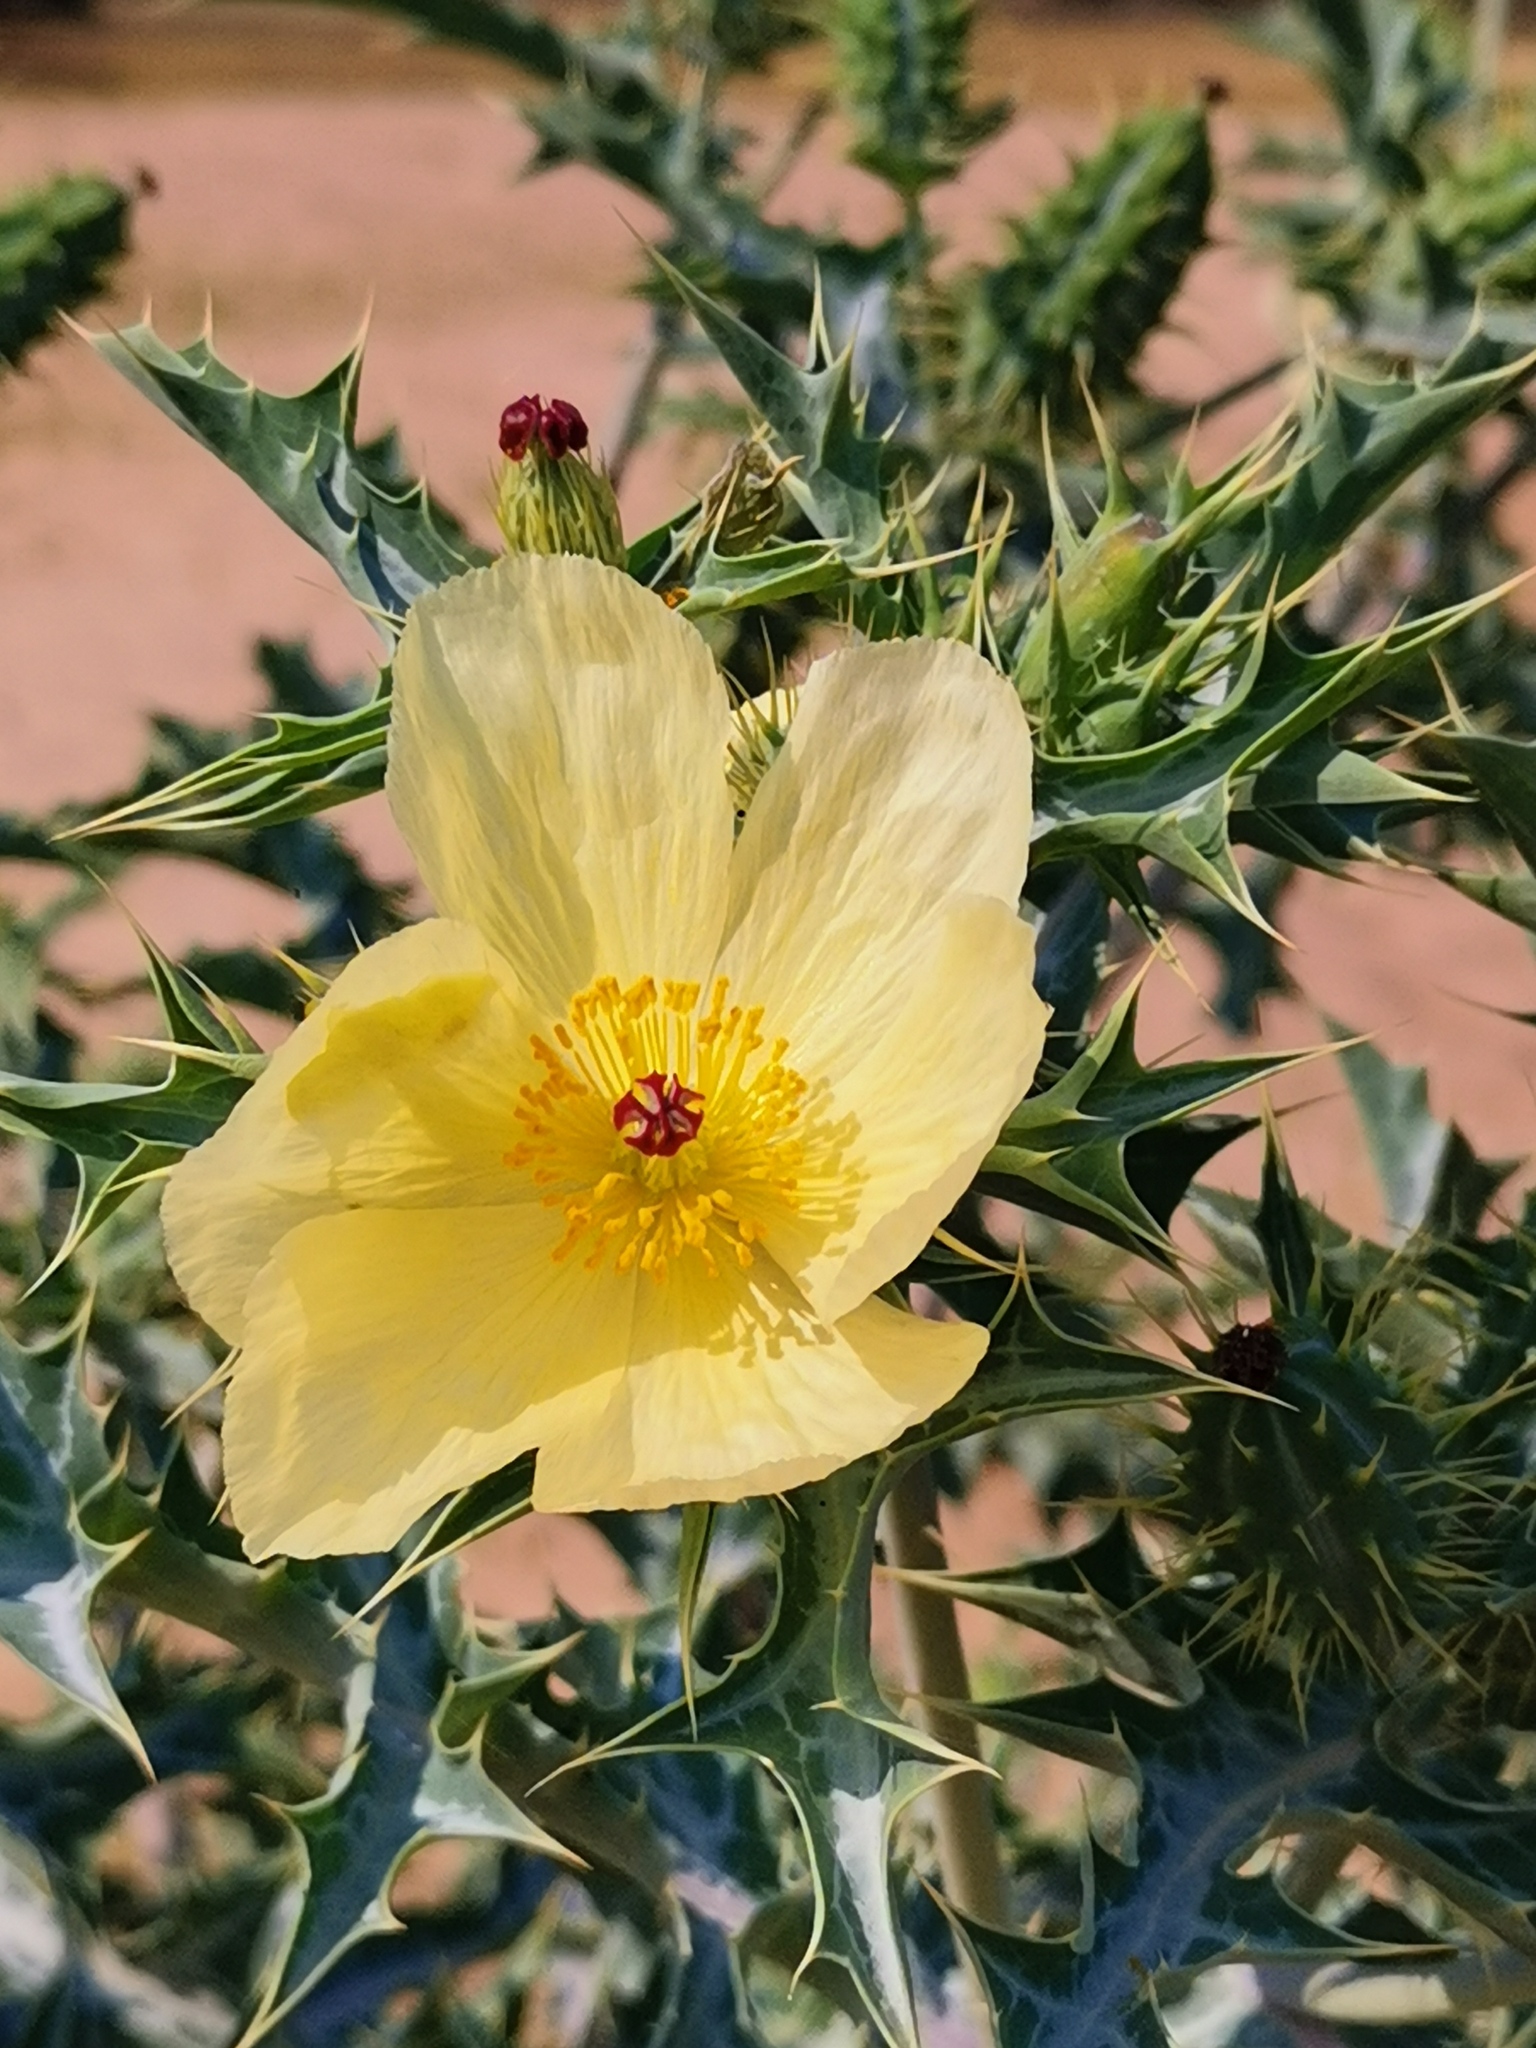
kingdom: Plantae
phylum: Tracheophyta
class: Magnoliopsida
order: Ranunculales
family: Papaveraceae
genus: Argemone
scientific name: Argemone ochroleuca
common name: White-flower mexican-poppy
